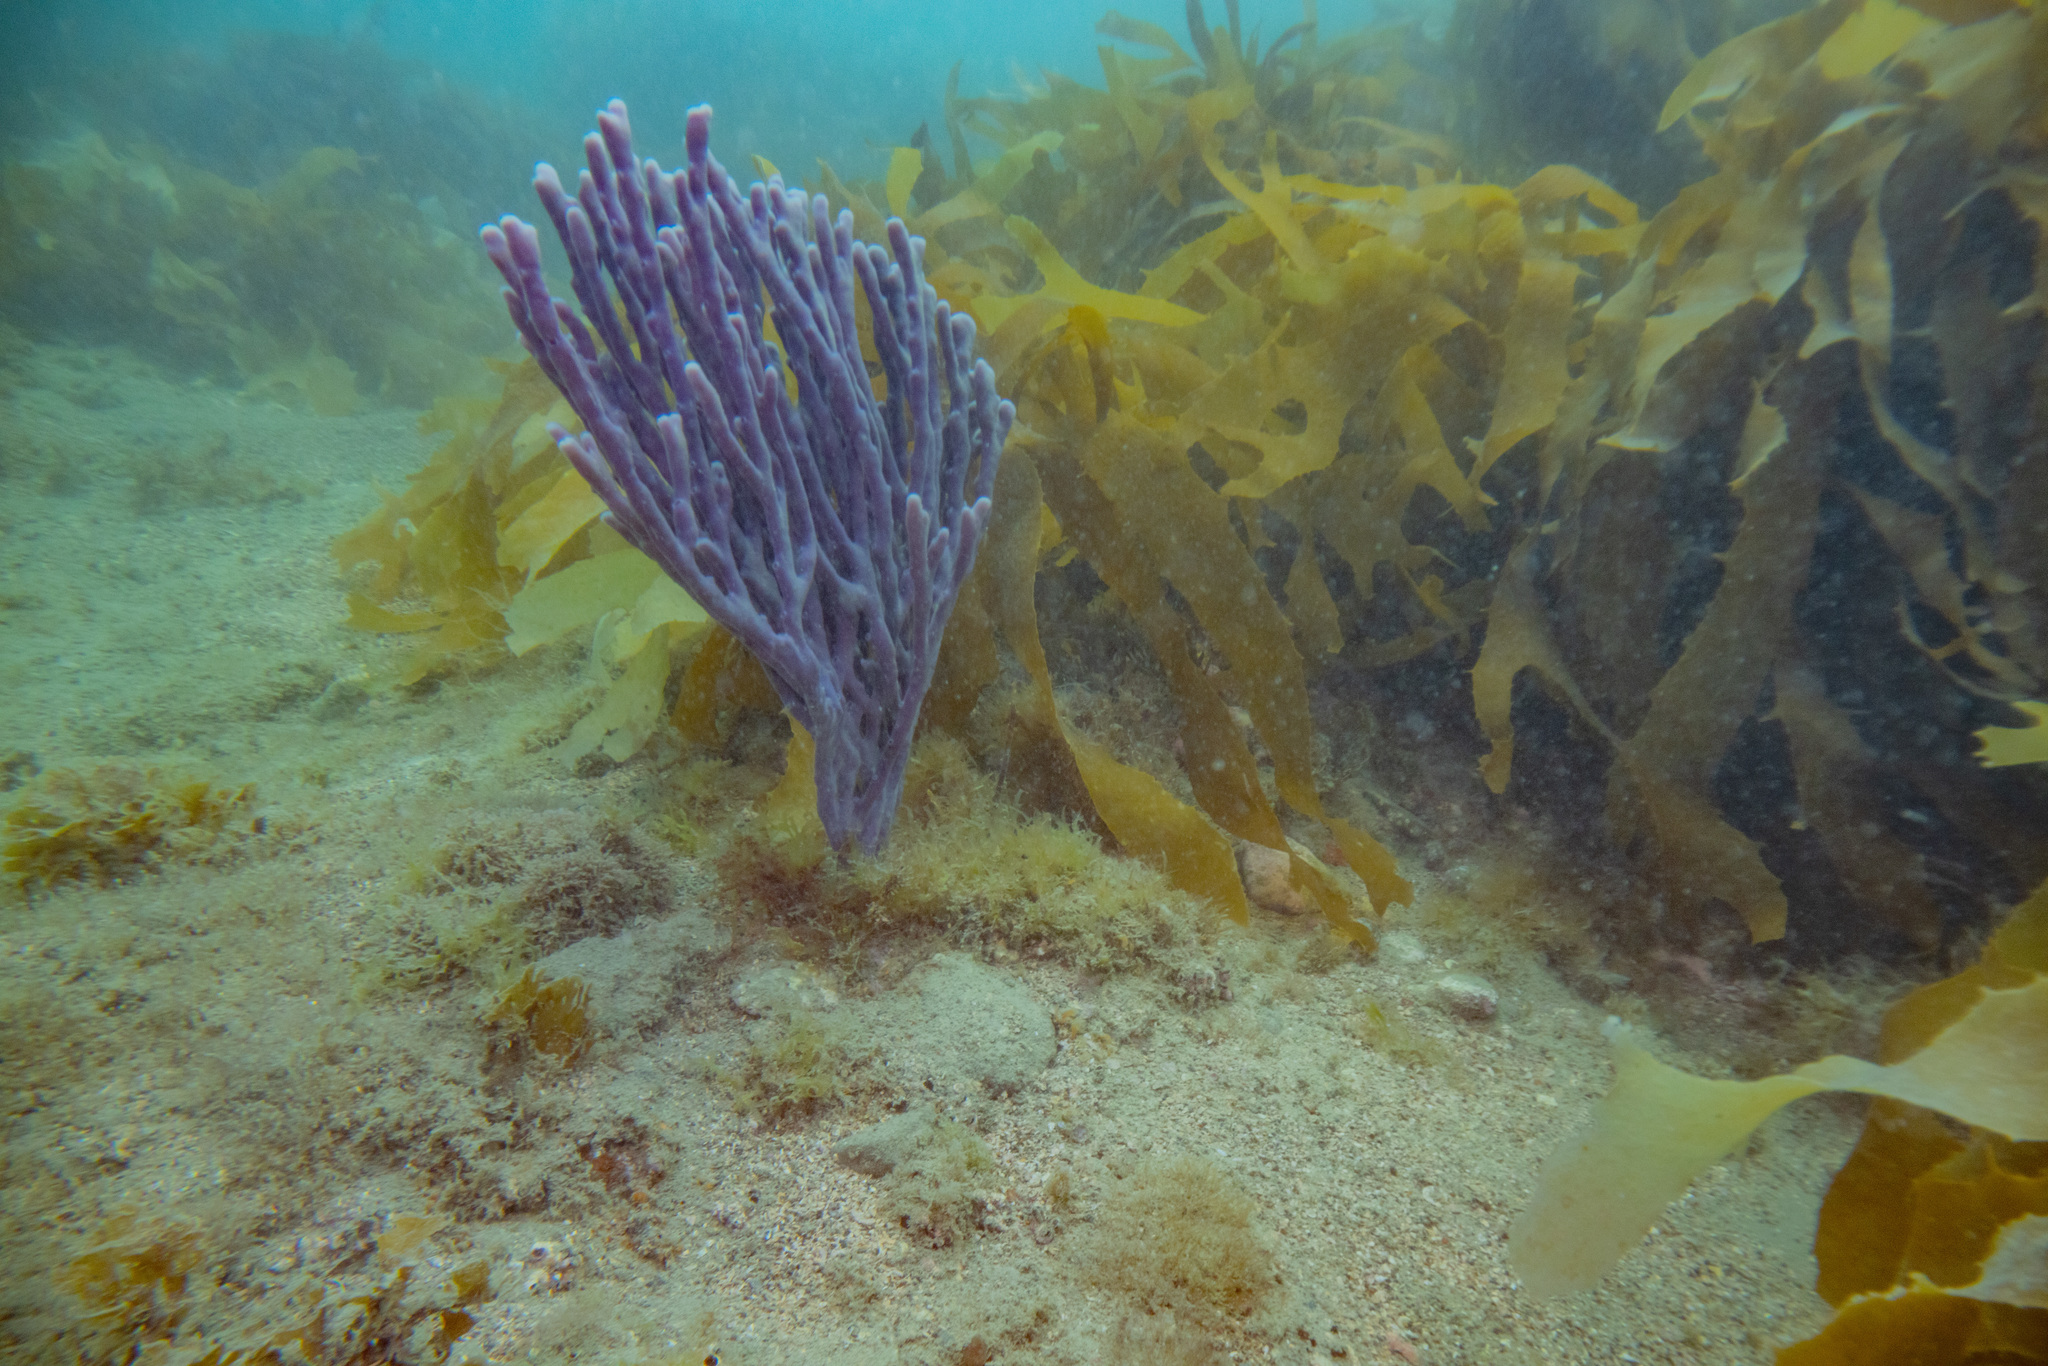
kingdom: Animalia
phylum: Porifera
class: Demospongiae
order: Haplosclerida
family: Callyspongiidae
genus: Callyspongia
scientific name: Callyspongia nuda
